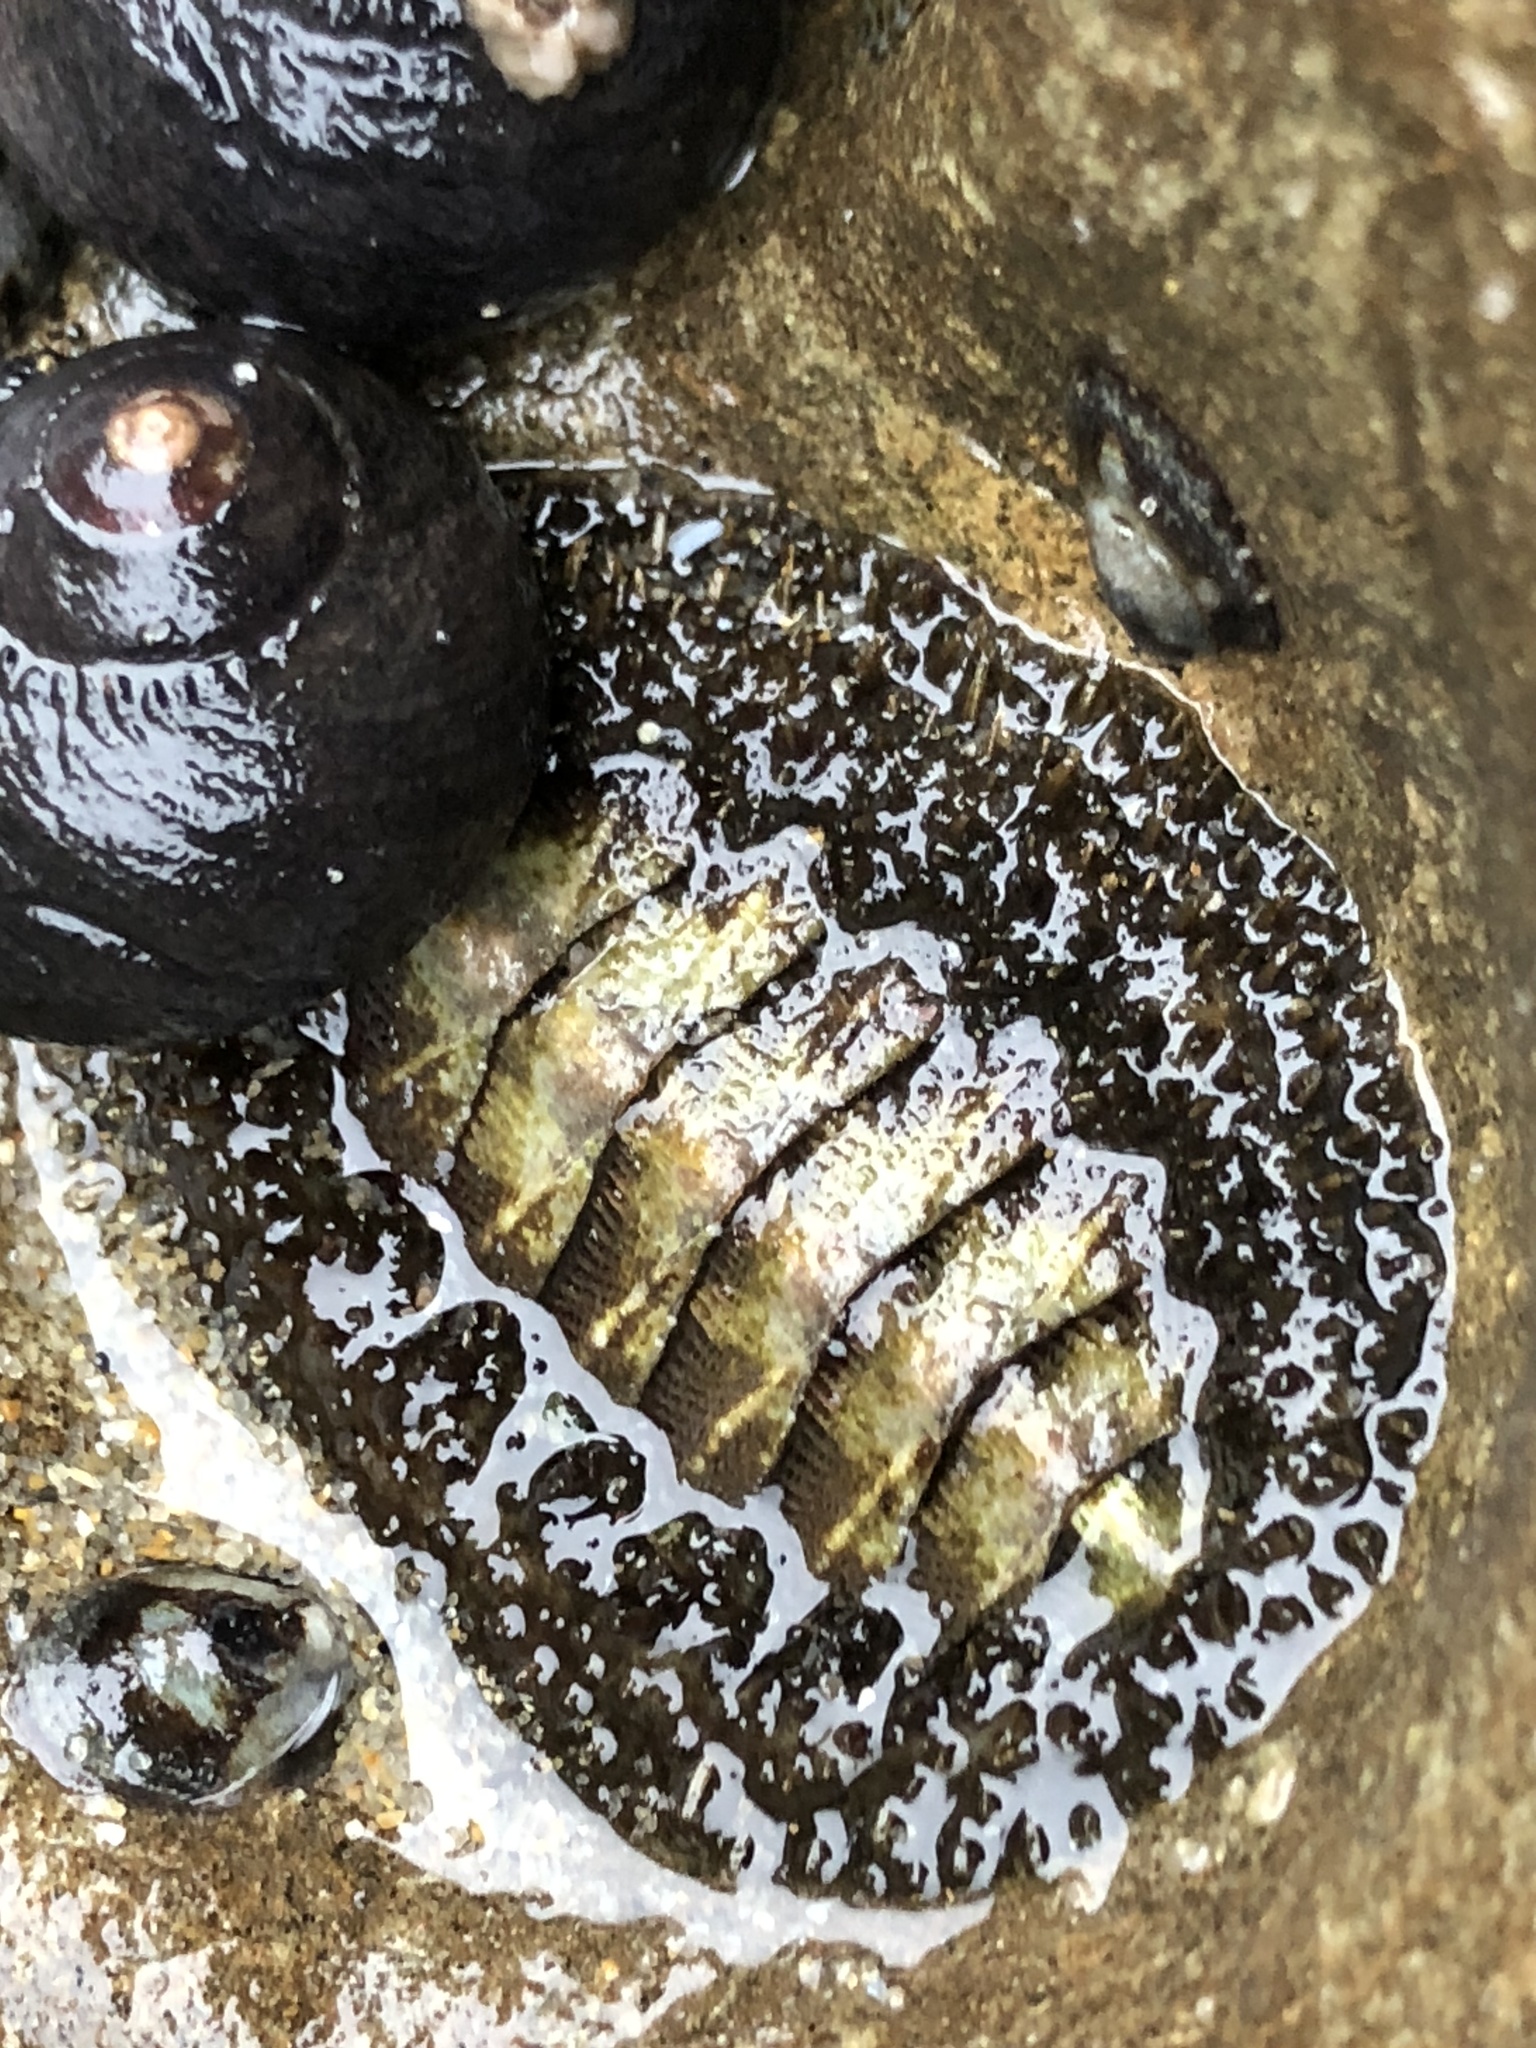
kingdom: Animalia
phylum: Mollusca
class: Polyplacophora
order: Chitonida
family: Mopaliidae
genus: Mopalia
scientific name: Mopalia muscosa
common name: Mossy chiton
